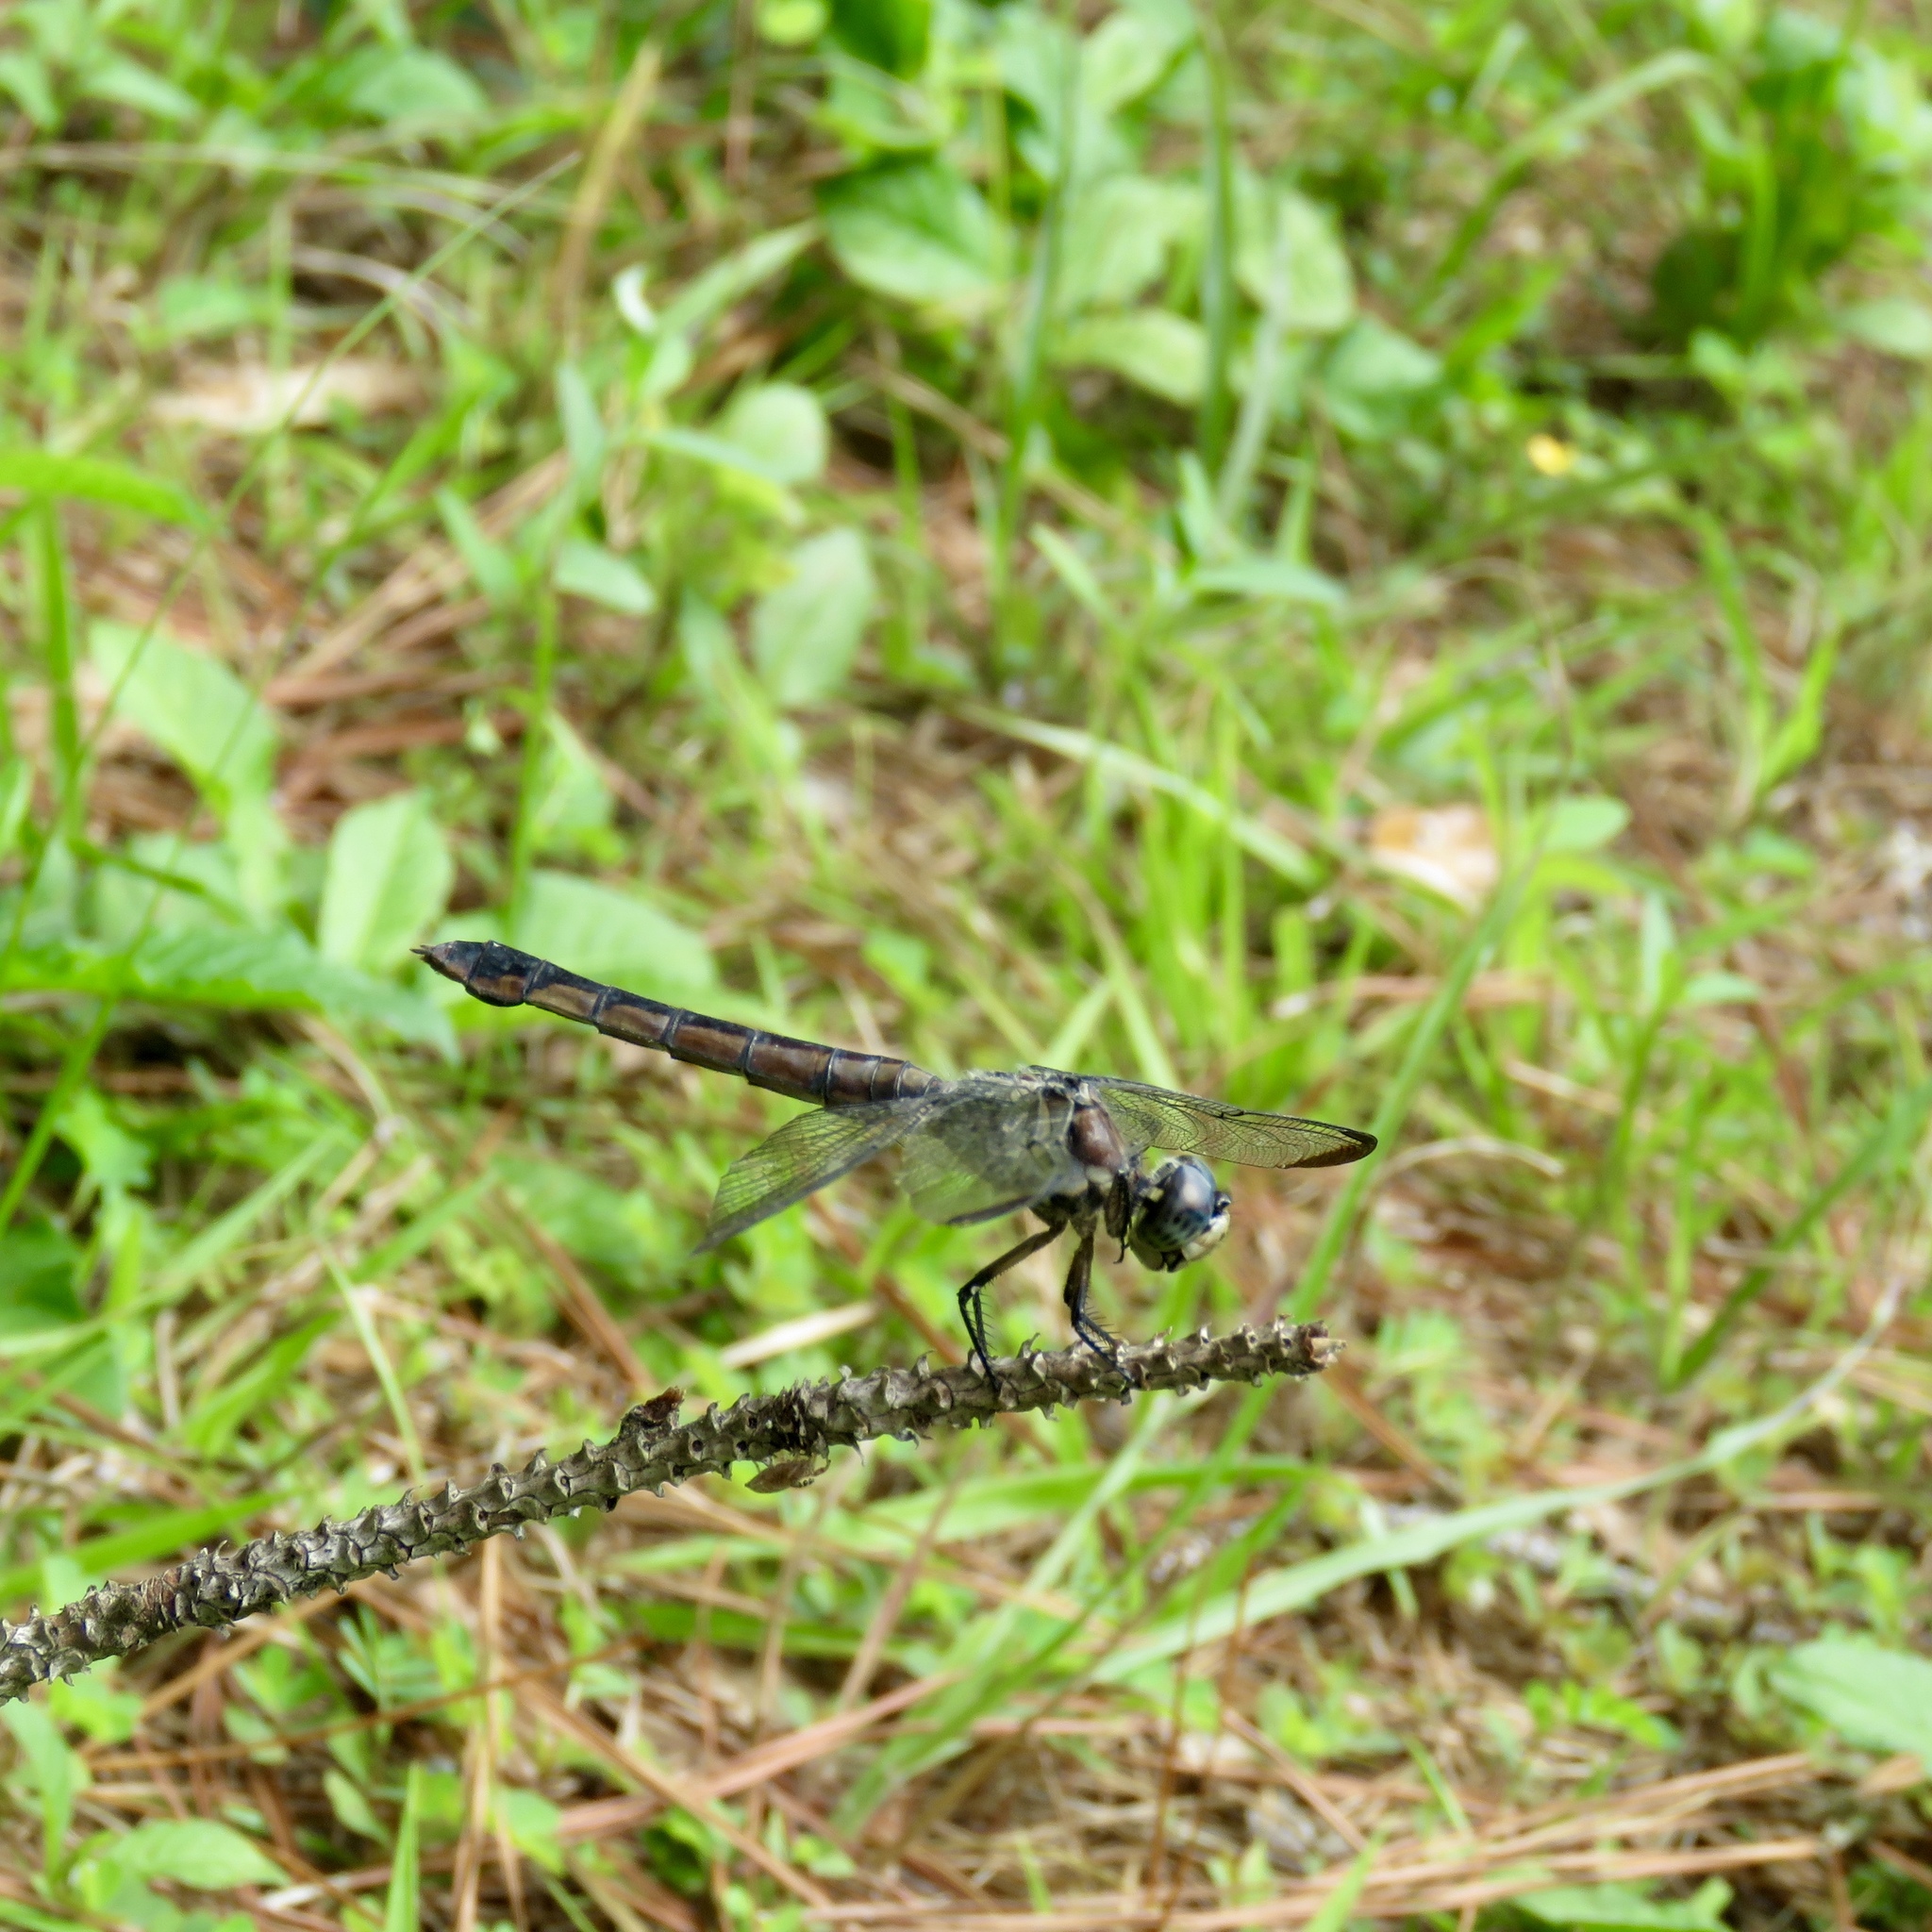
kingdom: Animalia
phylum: Arthropoda
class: Insecta
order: Odonata
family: Libellulidae
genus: Libellula
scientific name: Libellula vibrans
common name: Great blue skimmer
